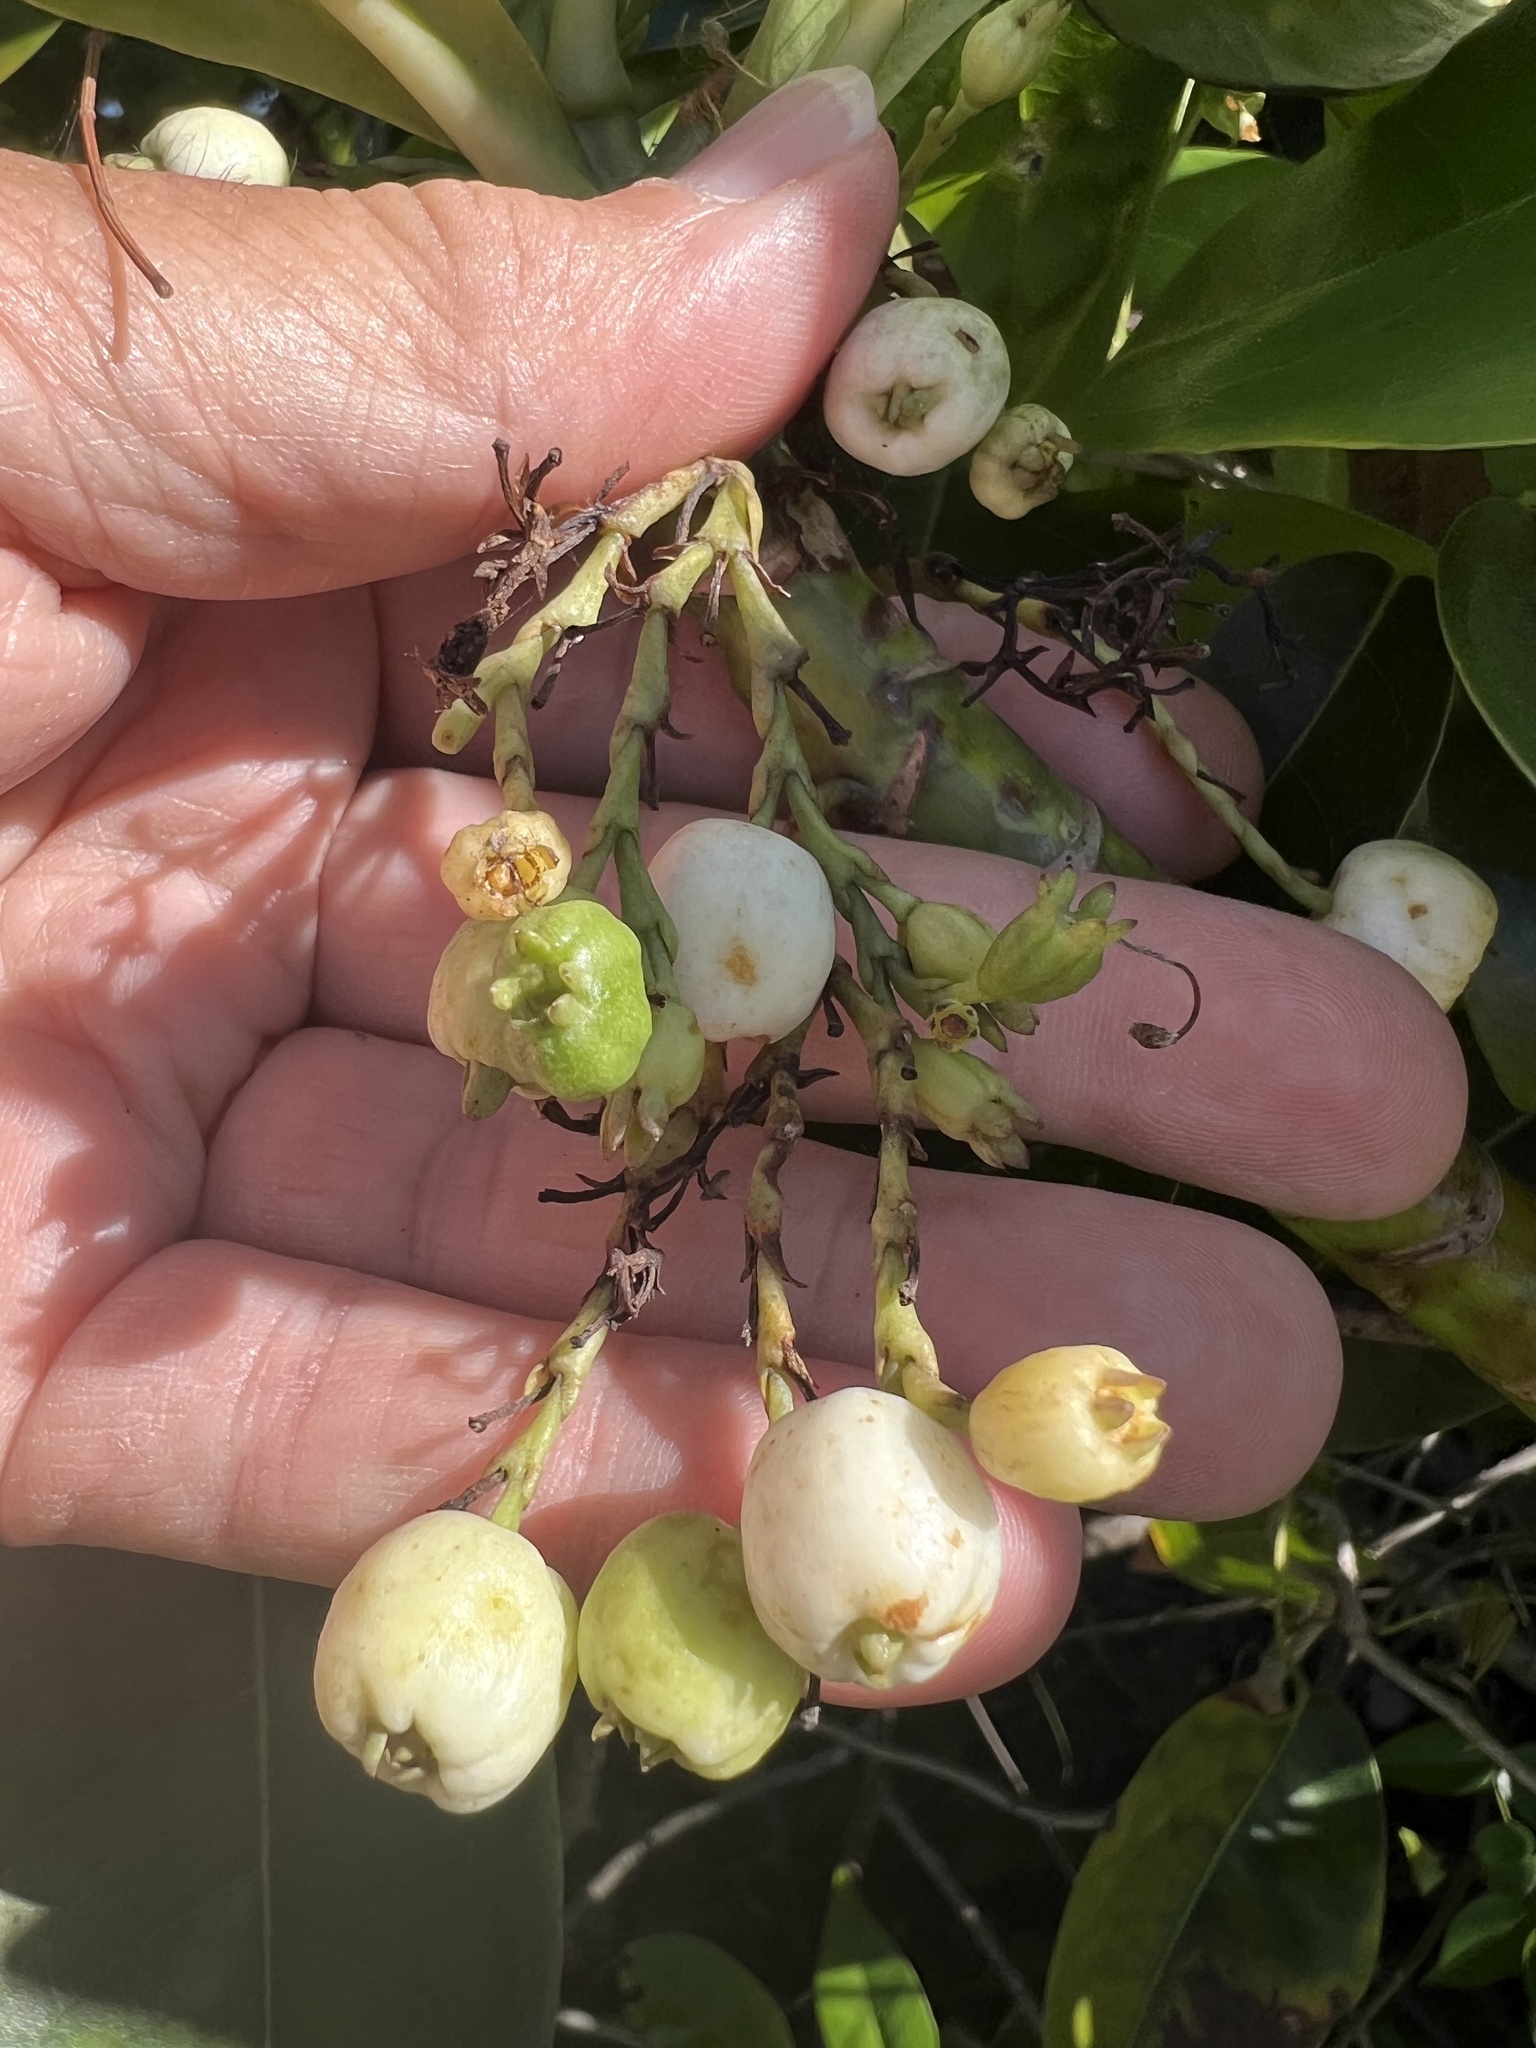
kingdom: Plantae
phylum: Tracheophyta
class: Magnoliopsida
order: Asterales
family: Goodeniaceae
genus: Scaevola
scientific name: Scaevola taccada
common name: Sea lettucetree
